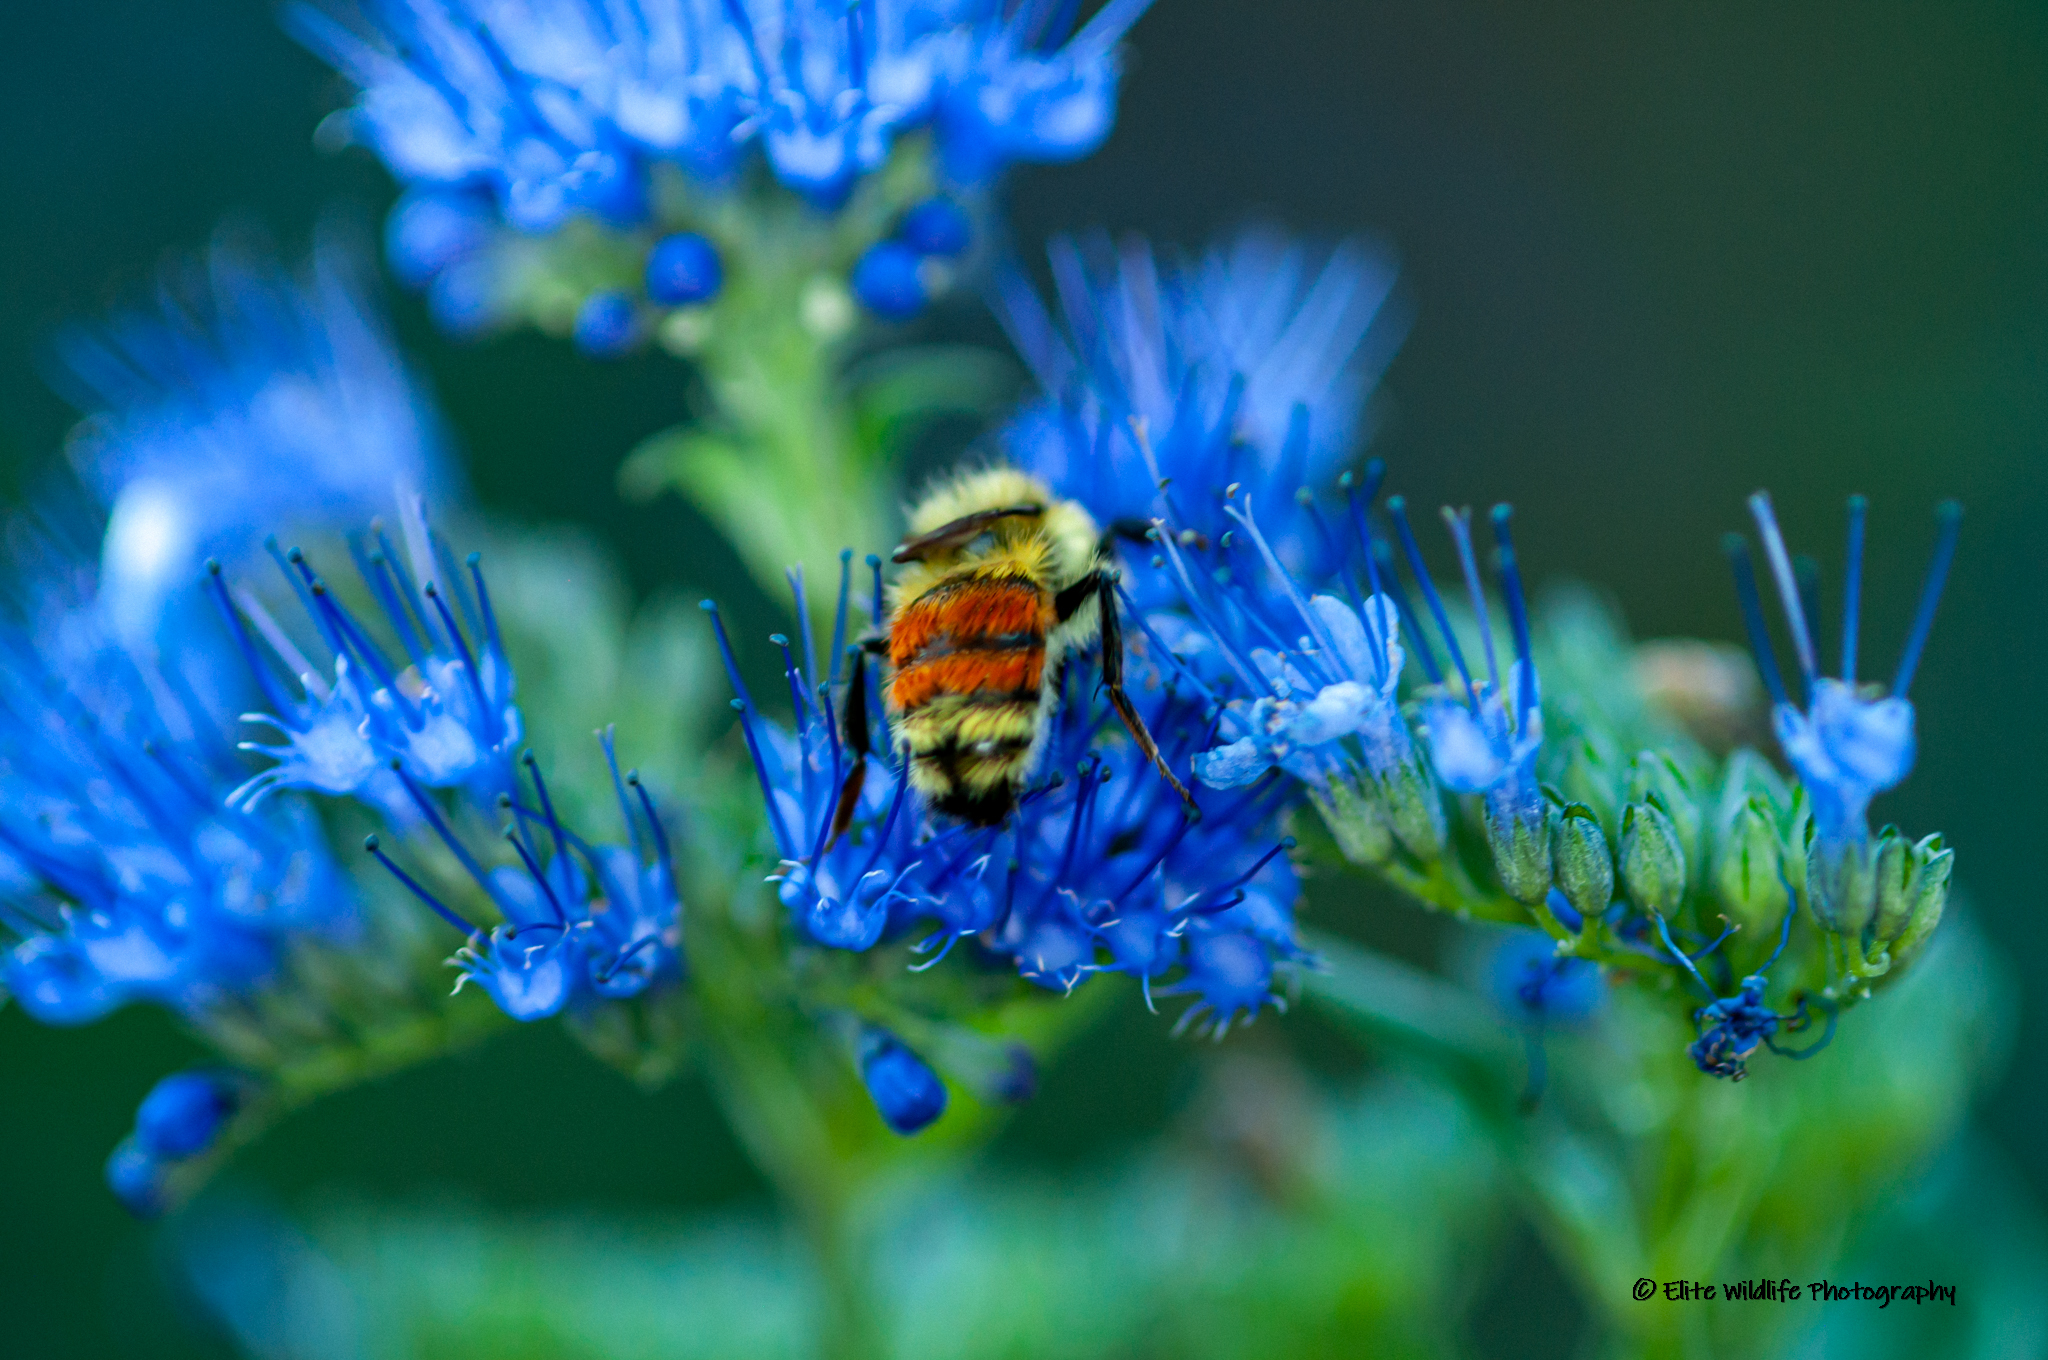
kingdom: Animalia
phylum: Arthropoda
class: Insecta
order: Hymenoptera
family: Apidae
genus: Bombus
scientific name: Bombus huntii
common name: Hunt bumble bee
